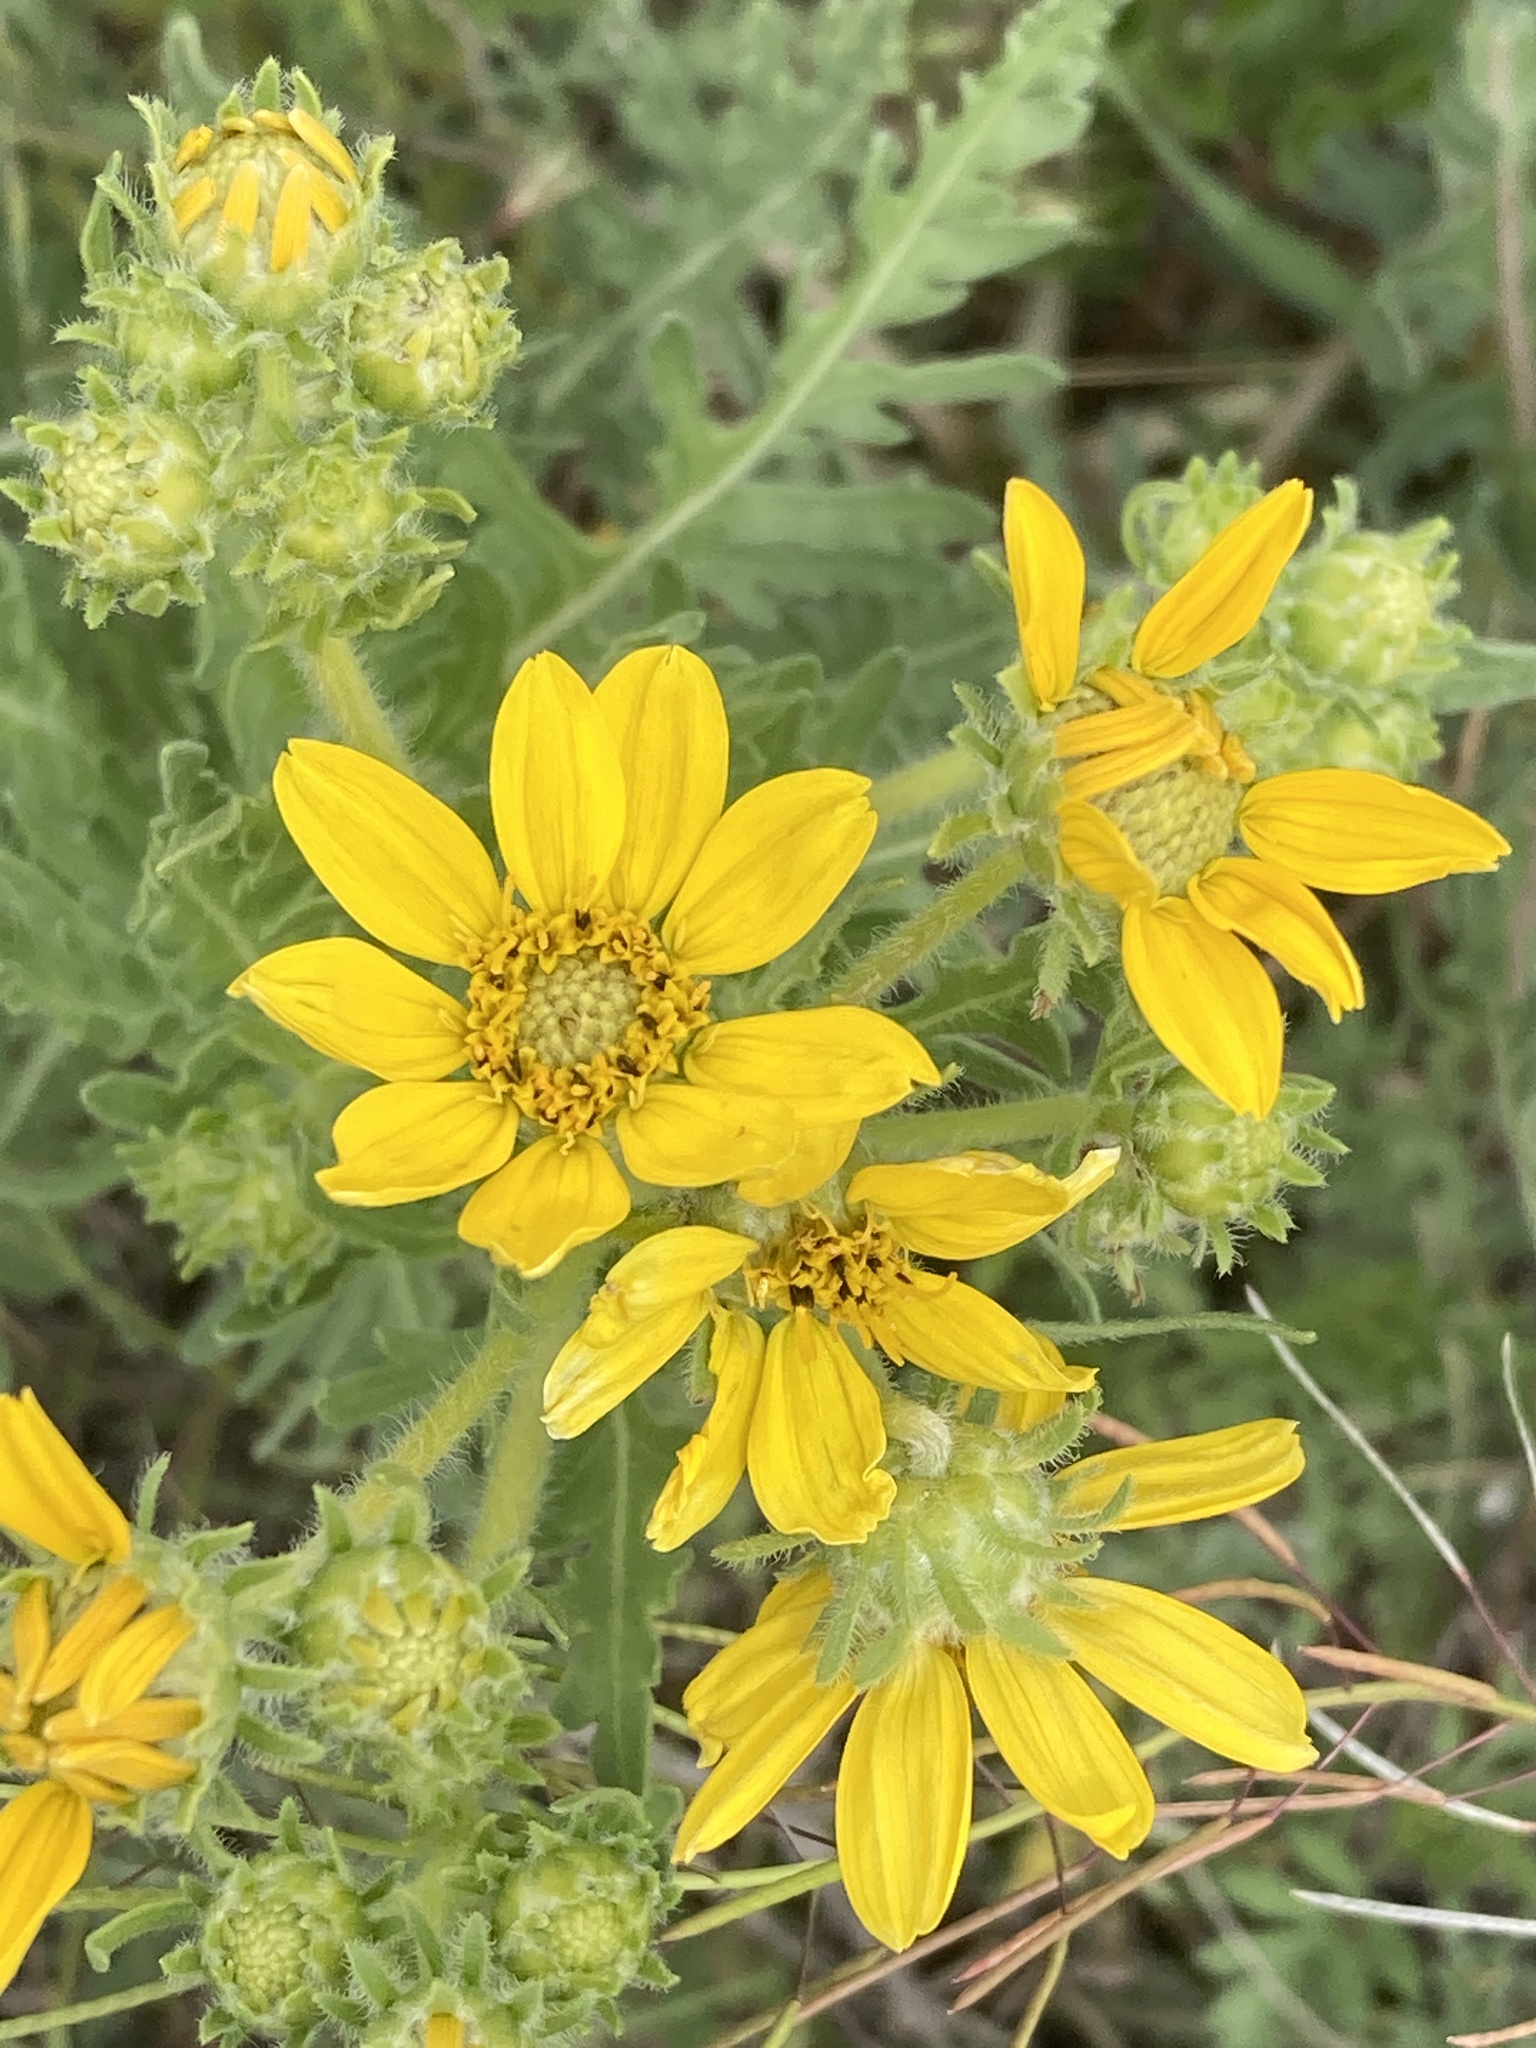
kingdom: Plantae
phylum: Tracheophyta
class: Magnoliopsida
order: Asterales
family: Asteraceae
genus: Engelmannia
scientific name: Engelmannia peristenia
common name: Engelmann's daisy
